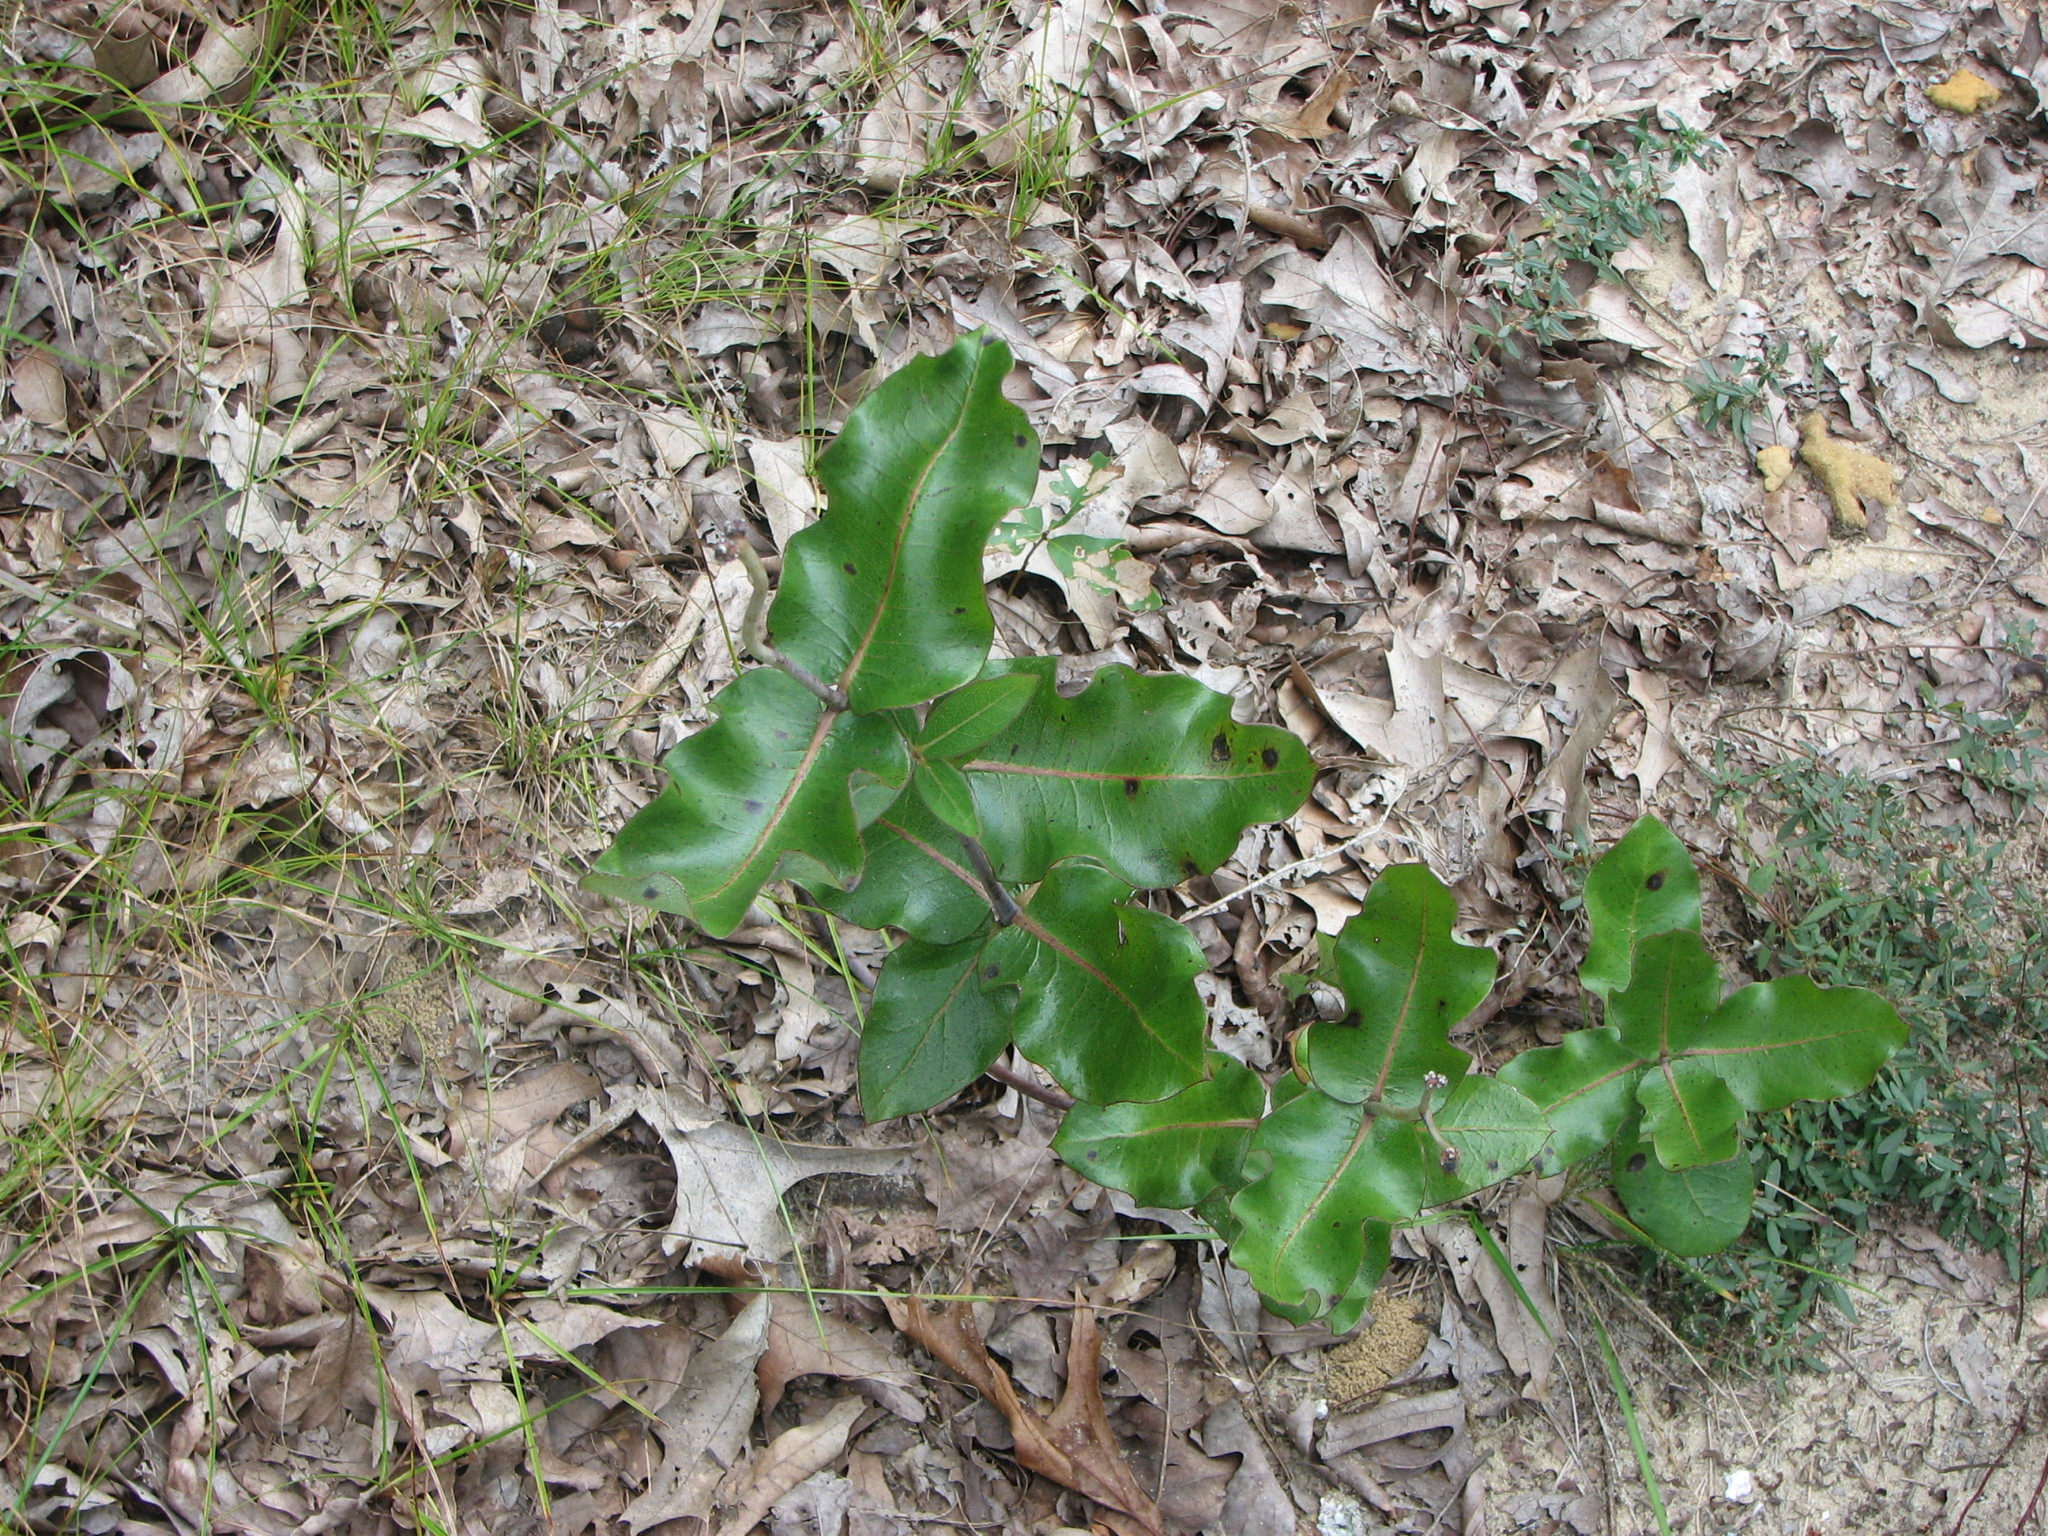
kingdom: Plantae
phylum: Tracheophyta
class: Magnoliopsida
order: Gentianales
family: Apocynaceae
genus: Asclepias
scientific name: Asclepias amplexicaulis
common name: Blunt-leaf milkweed
